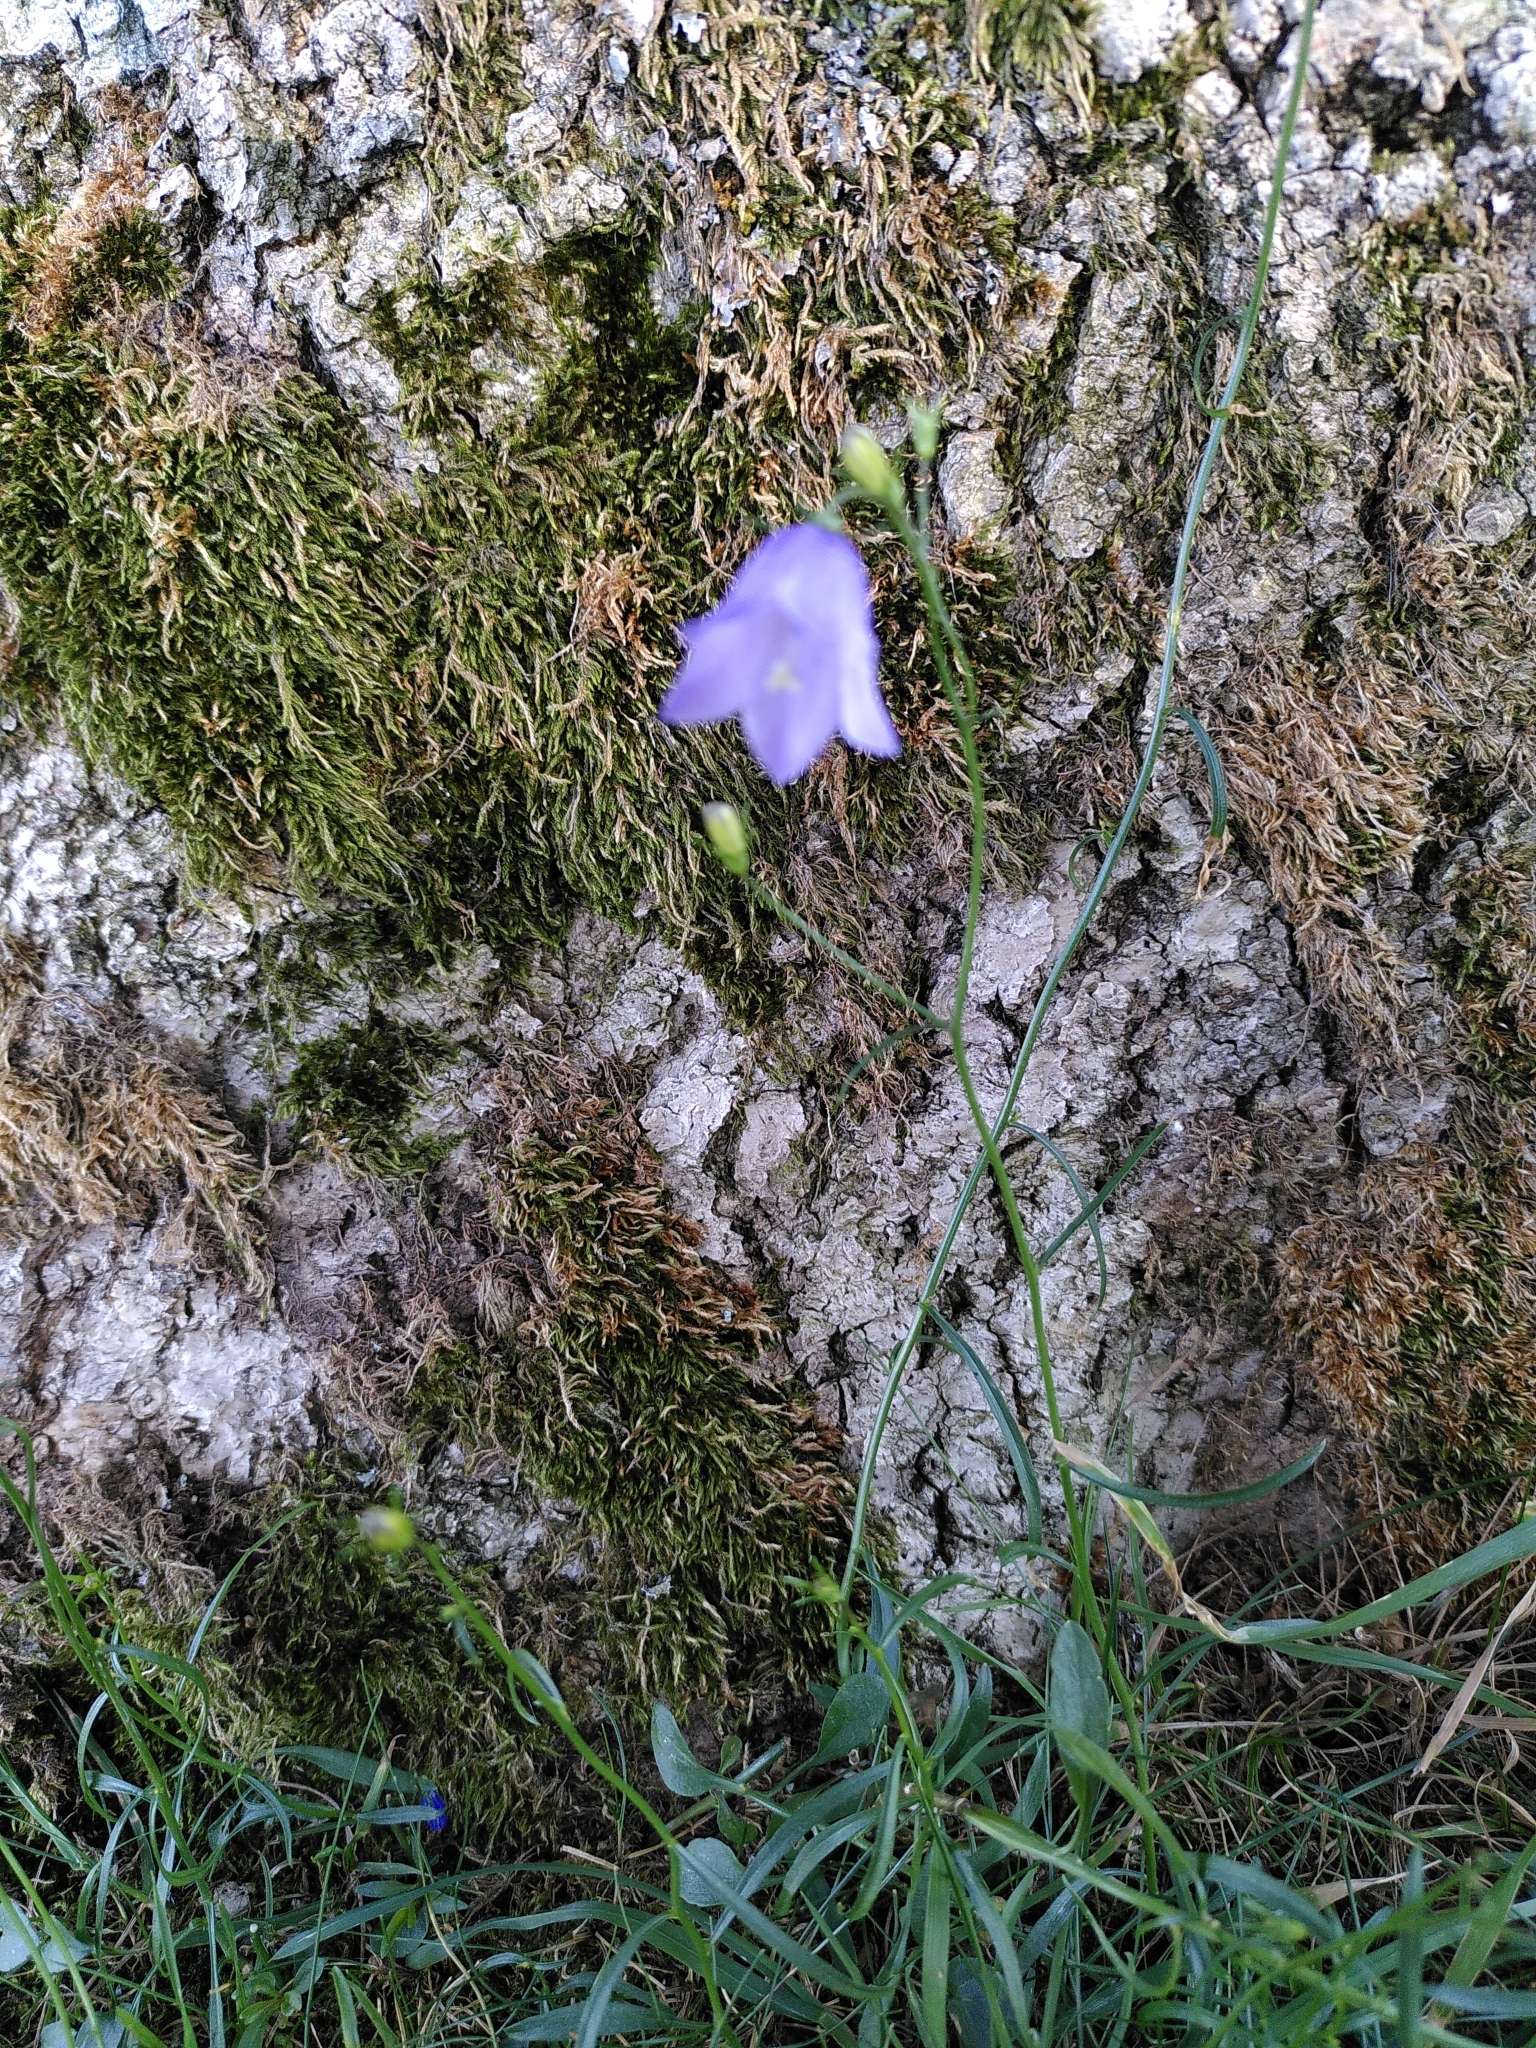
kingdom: Plantae
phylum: Tracheophyta
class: Magnoliopsida
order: Asterales
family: Campanulaceae
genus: Campanula
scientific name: Campanula rotundifolia
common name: Harebell
